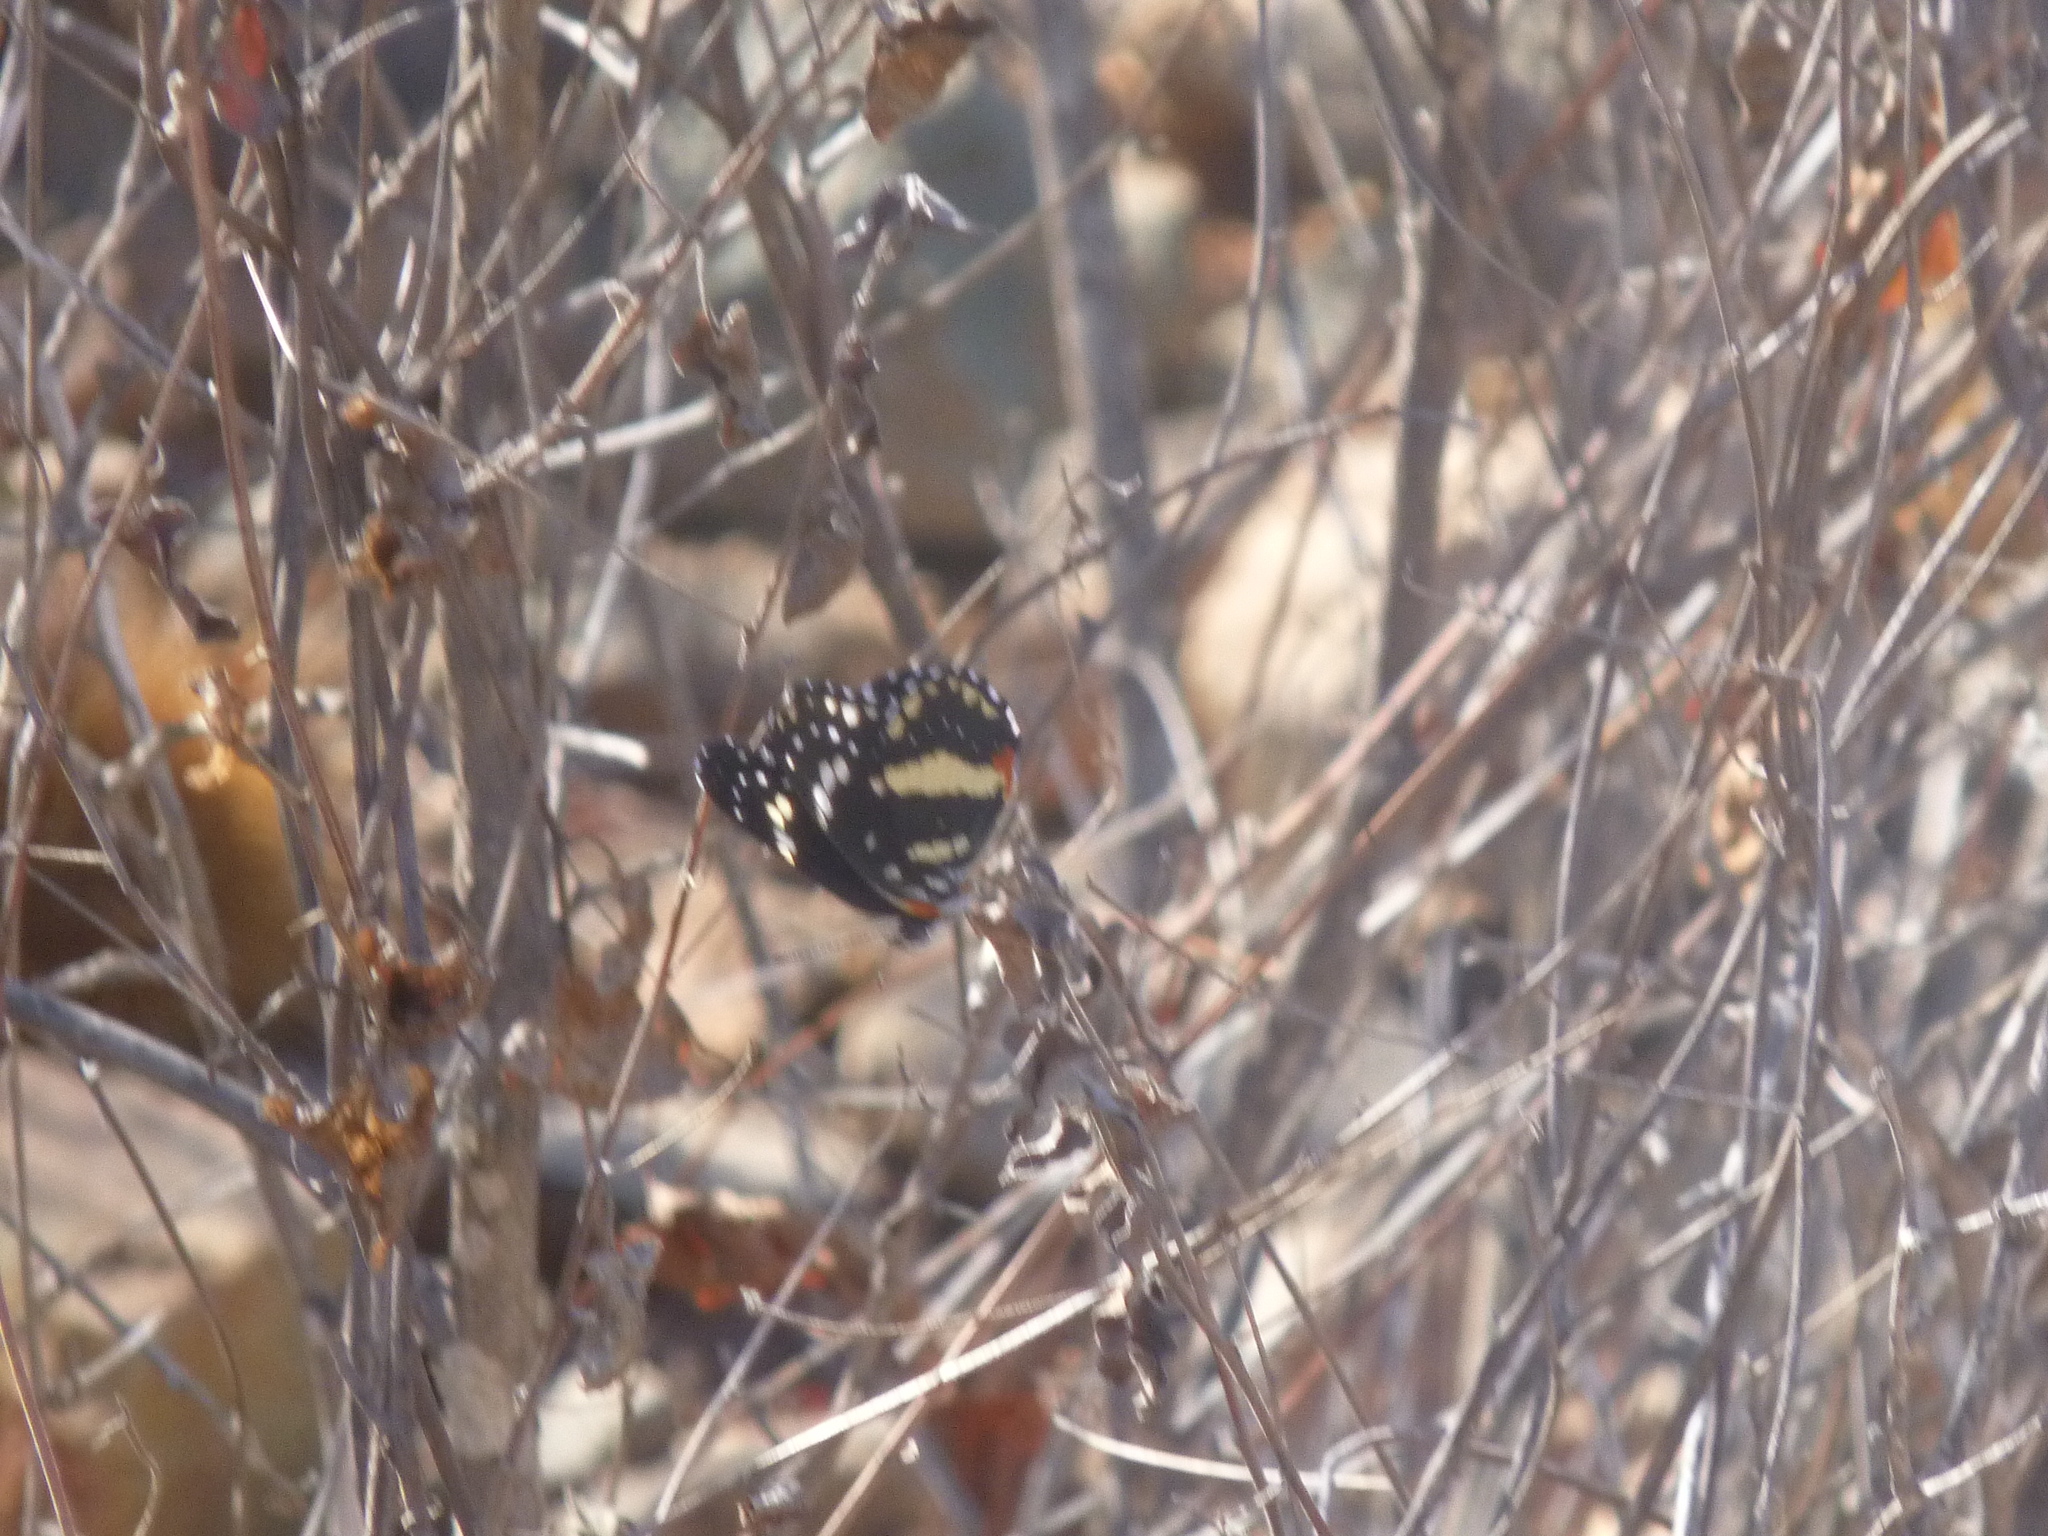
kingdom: Animalia
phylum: Arthropoda
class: Insecta
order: Lepidoptera
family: Nymphalidae
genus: Chlosyne
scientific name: Chlosyne lacinia
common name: Bordered patch
